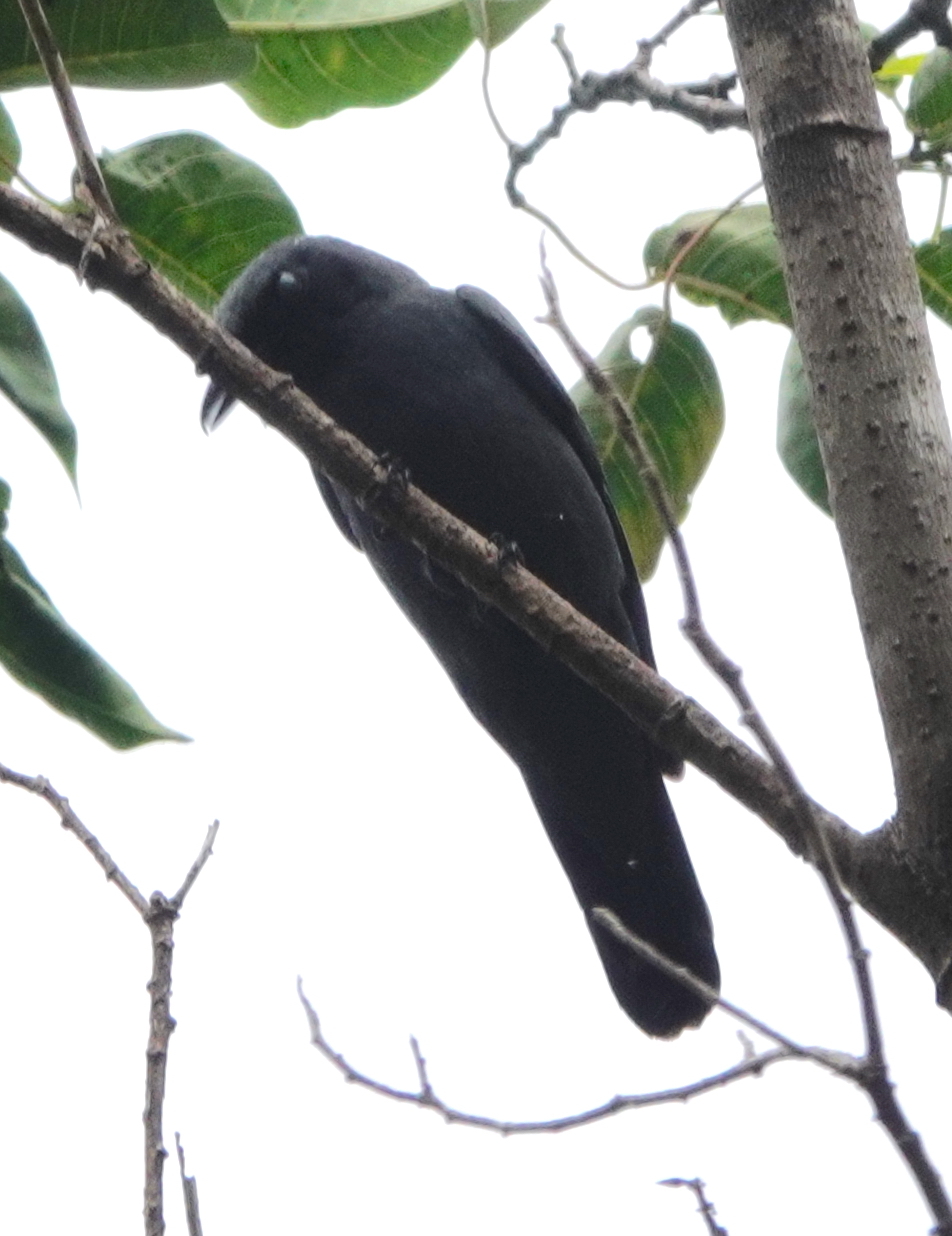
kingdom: Animalia
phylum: Chordata
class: Aves
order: Passeriformes
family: Campephagidae
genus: Edolisoma
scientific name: Edolisoma tenuirostre
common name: Common cicadabird
